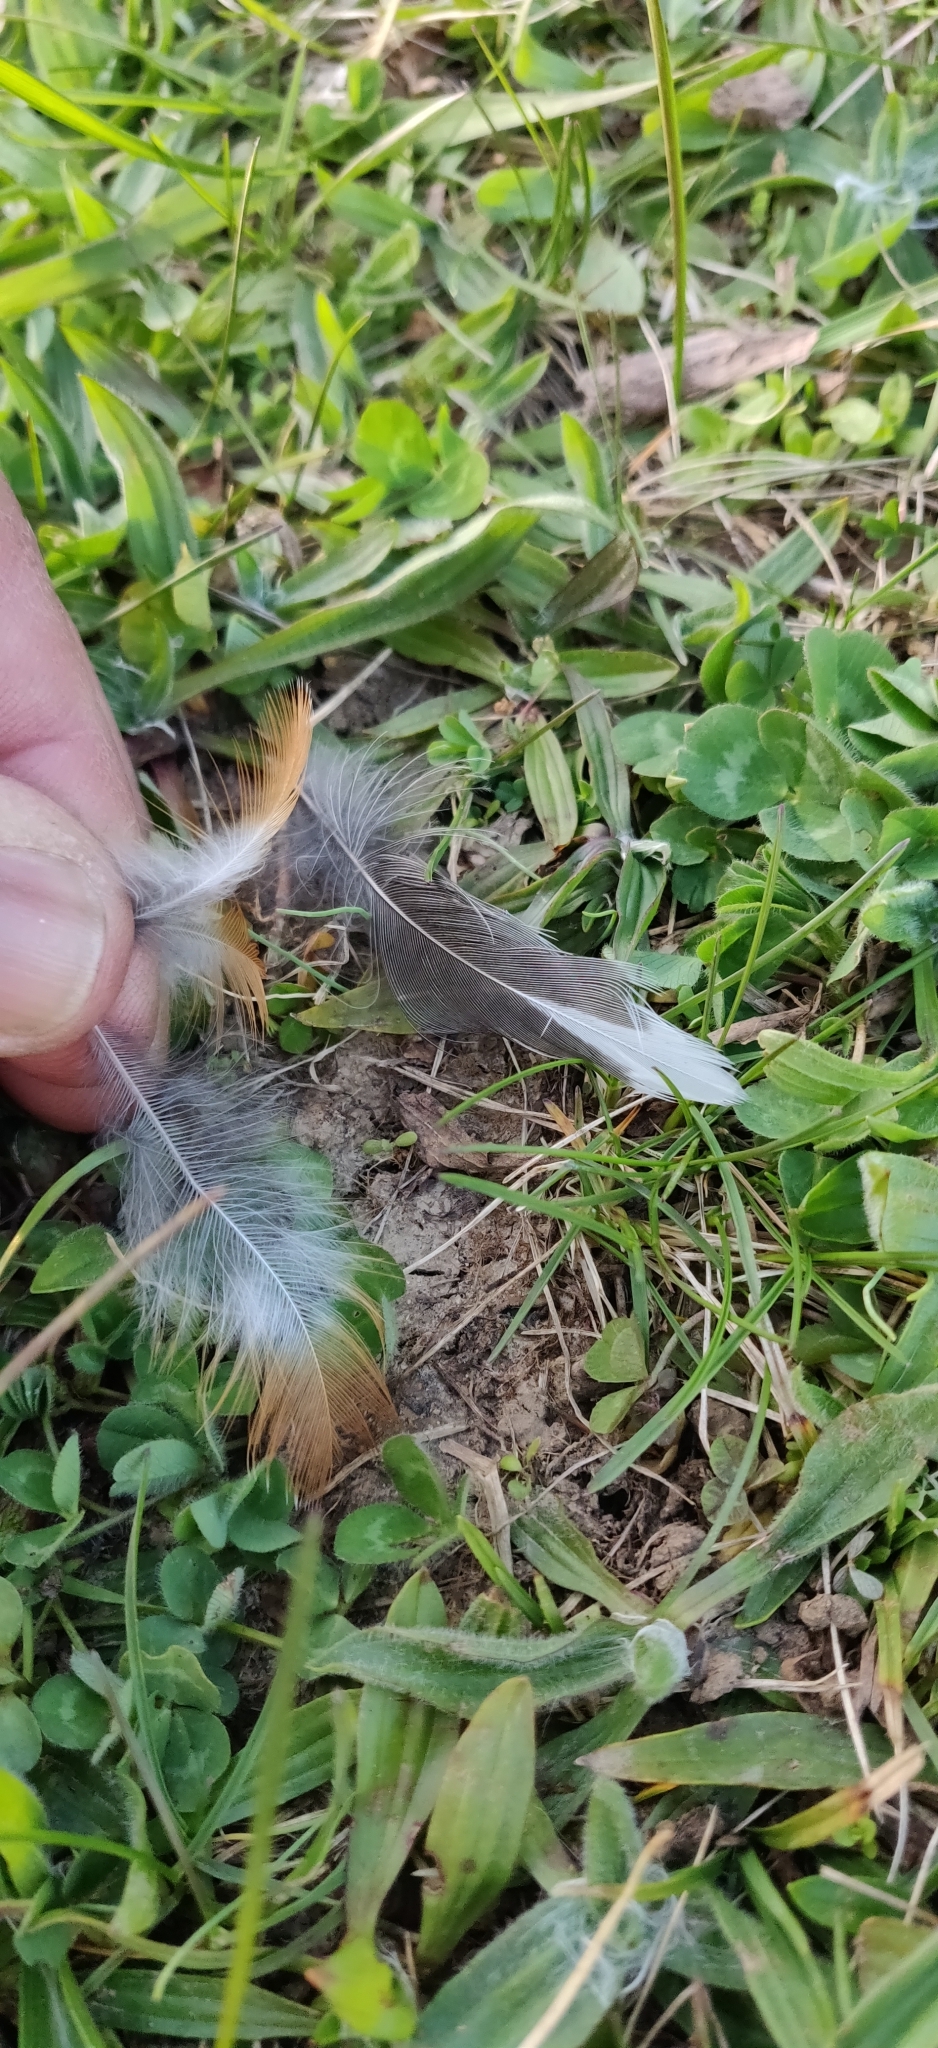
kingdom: Animalia
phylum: Chordata
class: Aves
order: Passeriformes
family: Turdidae
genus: Turdus
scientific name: Turdus migratorius
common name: American robin
